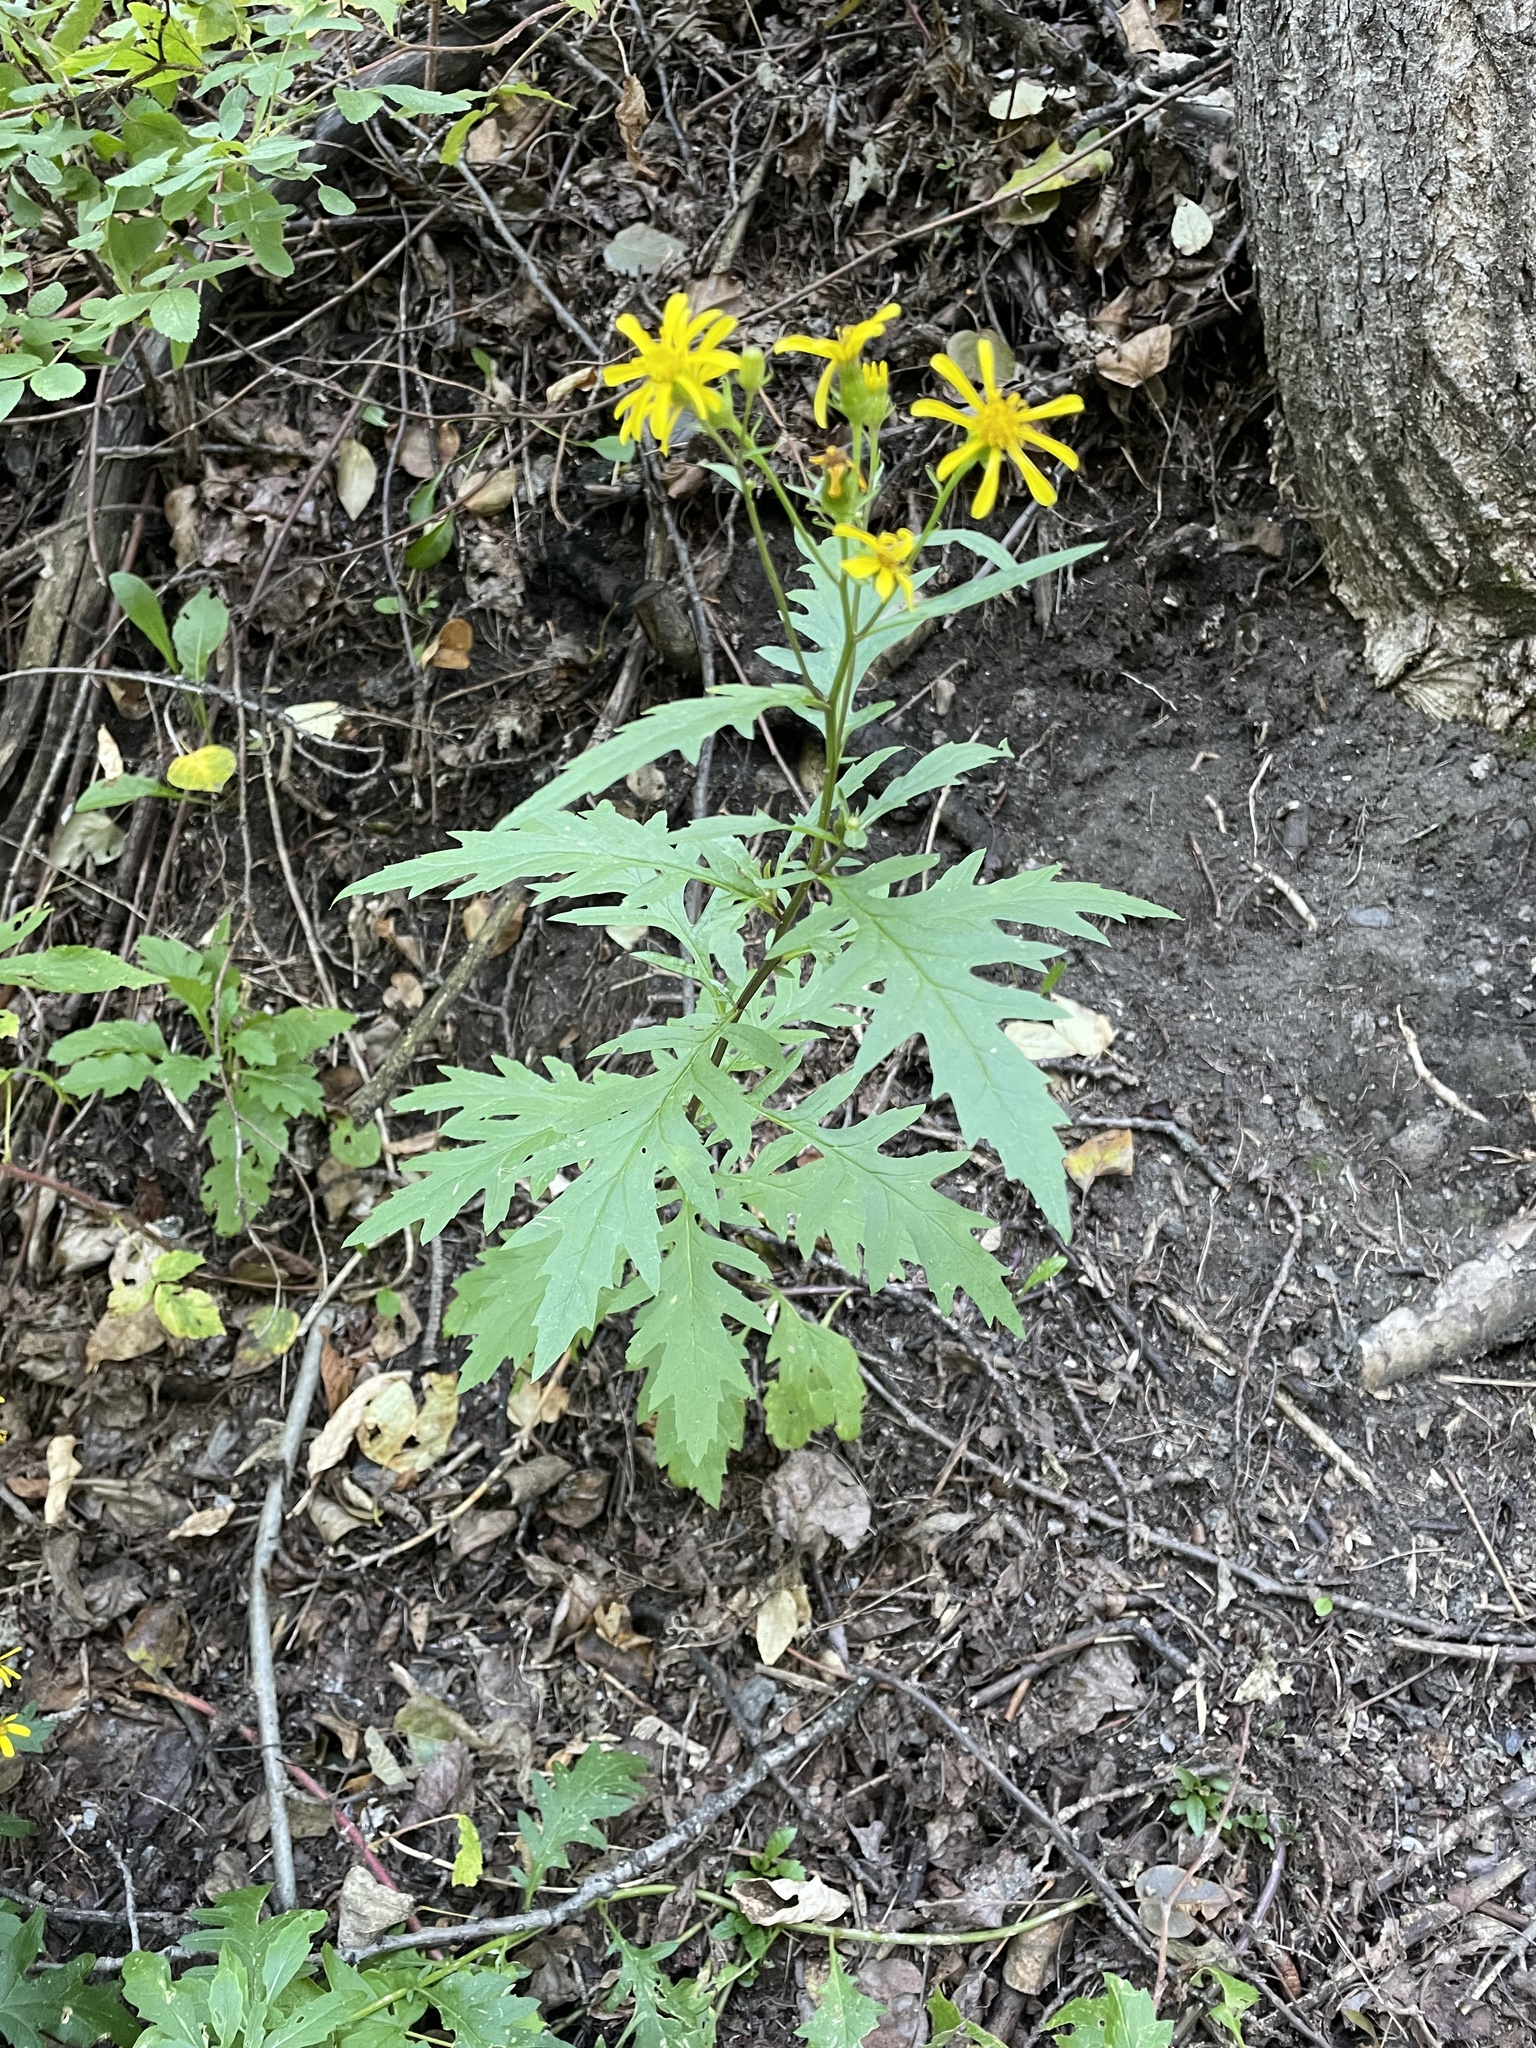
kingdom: Plantae
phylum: Tracheophyta
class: Magnoliopsida
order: Asterales
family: Asteraceae
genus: Senecio
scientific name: Senecio eremophilus
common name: Desert ragwort
